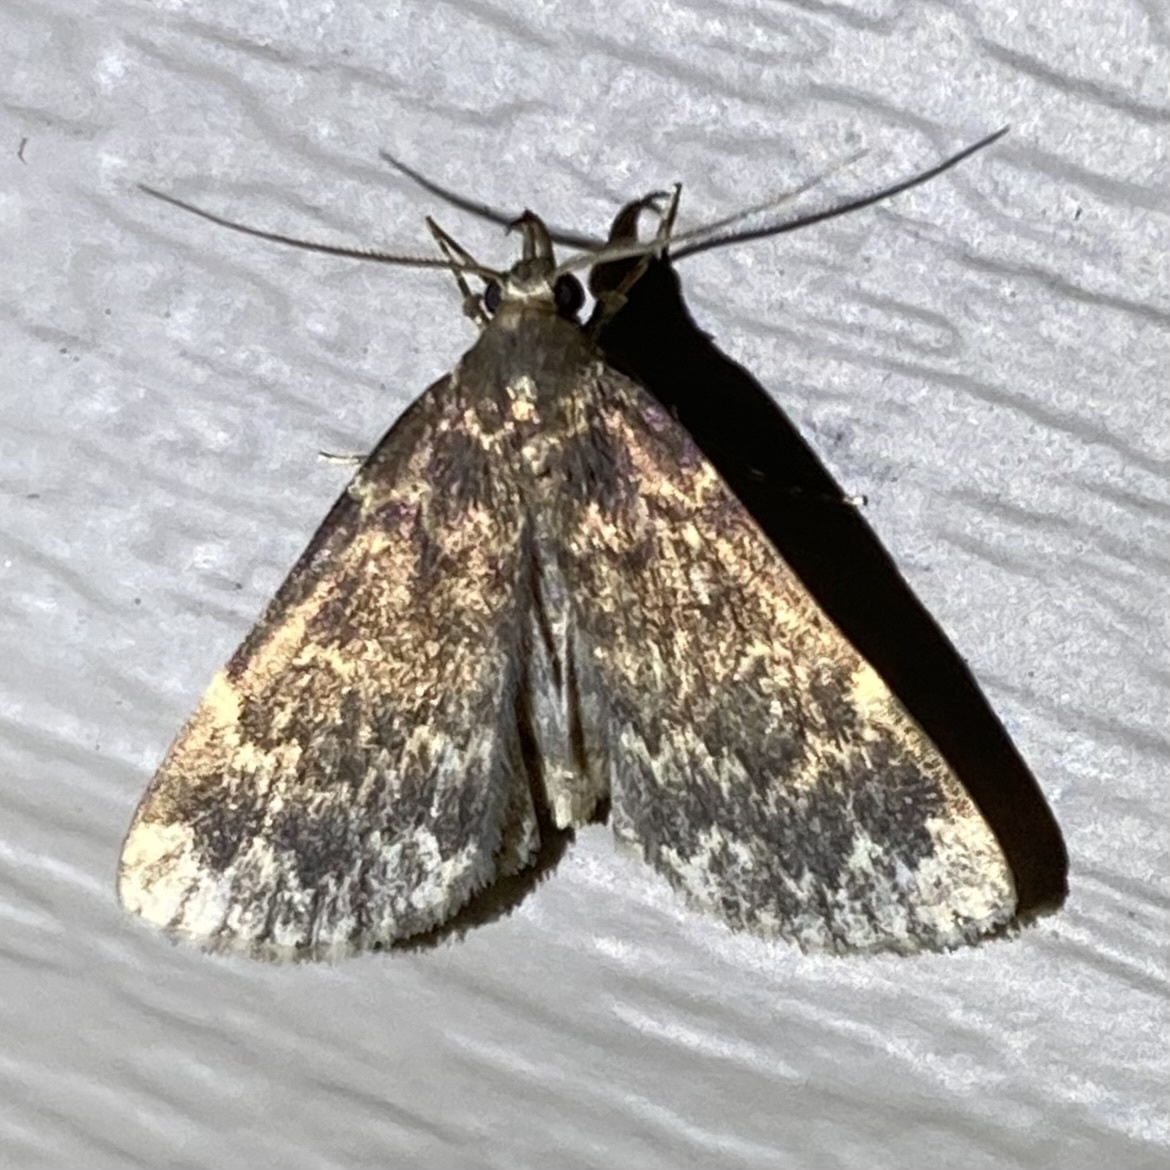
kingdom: Animalia
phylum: Arthropoda
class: Insecta
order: Lepidoptera
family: Erebidae
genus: Idia
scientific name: Idia lubricalis
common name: Twin-striped tabby
